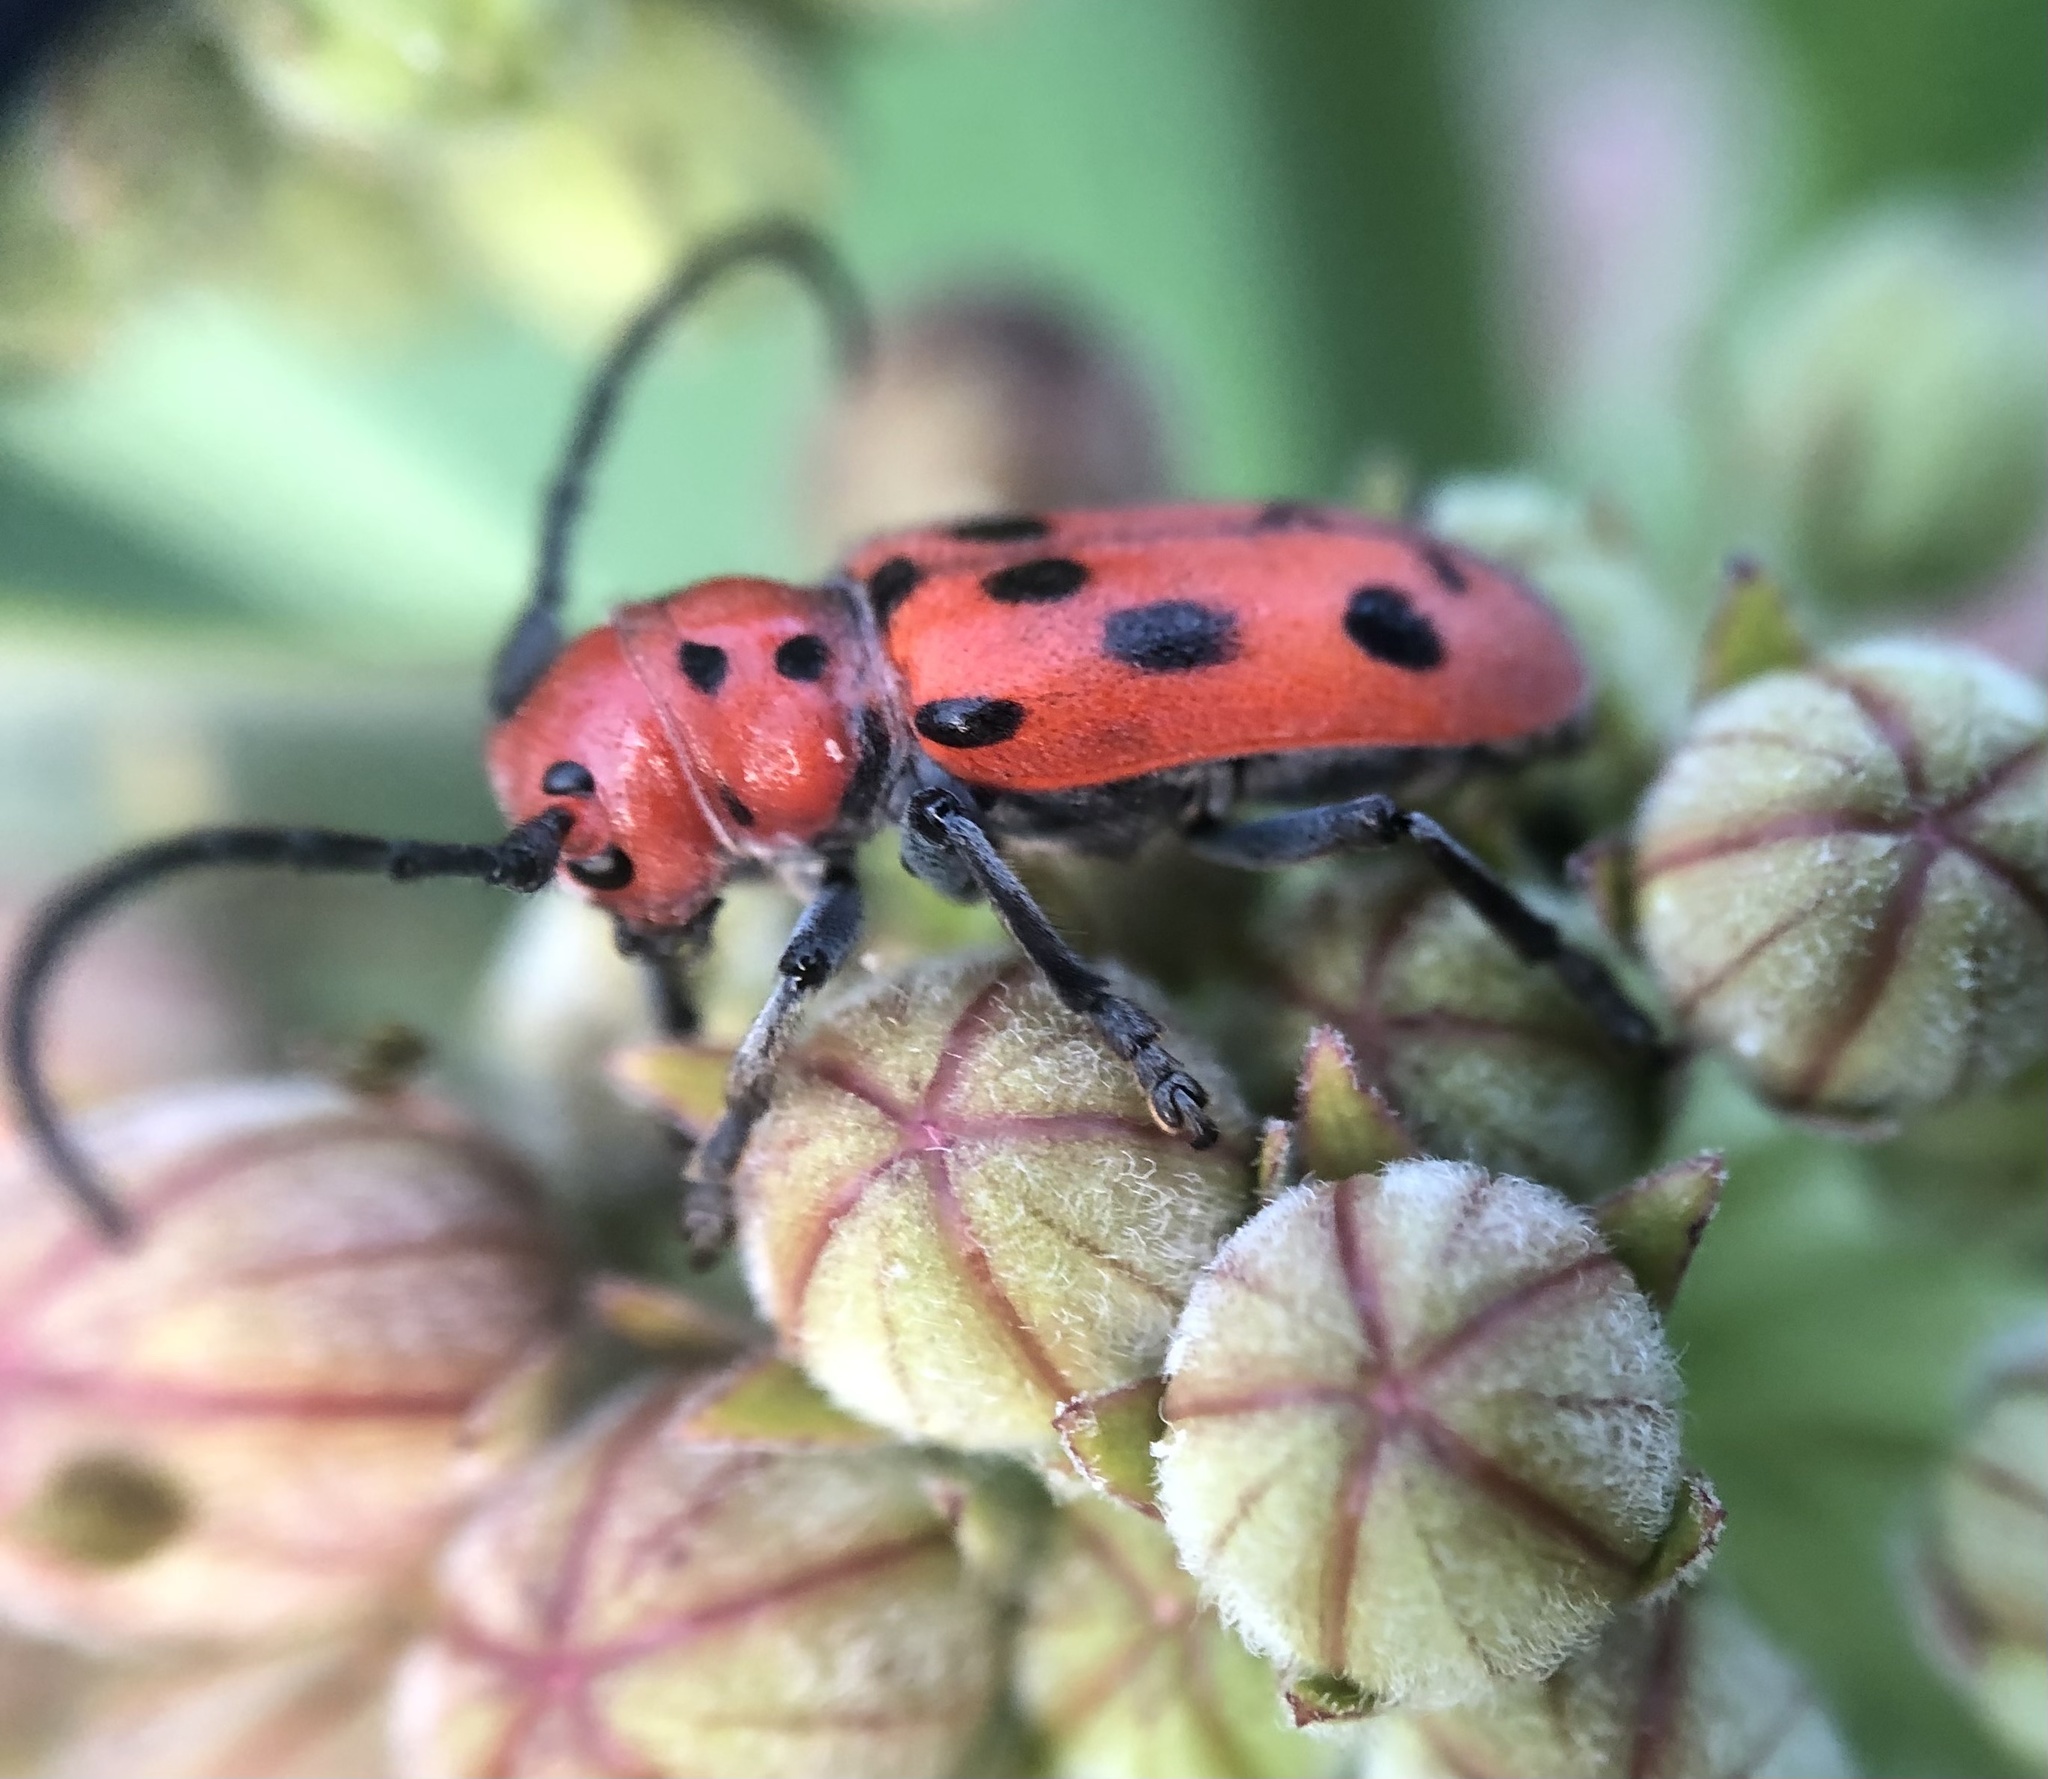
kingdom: Animalia
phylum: Arthropoda
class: Insecta
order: Coleoptera
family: Cerambycidae
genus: Tetraopes
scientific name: Tetraopes tetrophthalmus
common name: Red milkweed beetle
